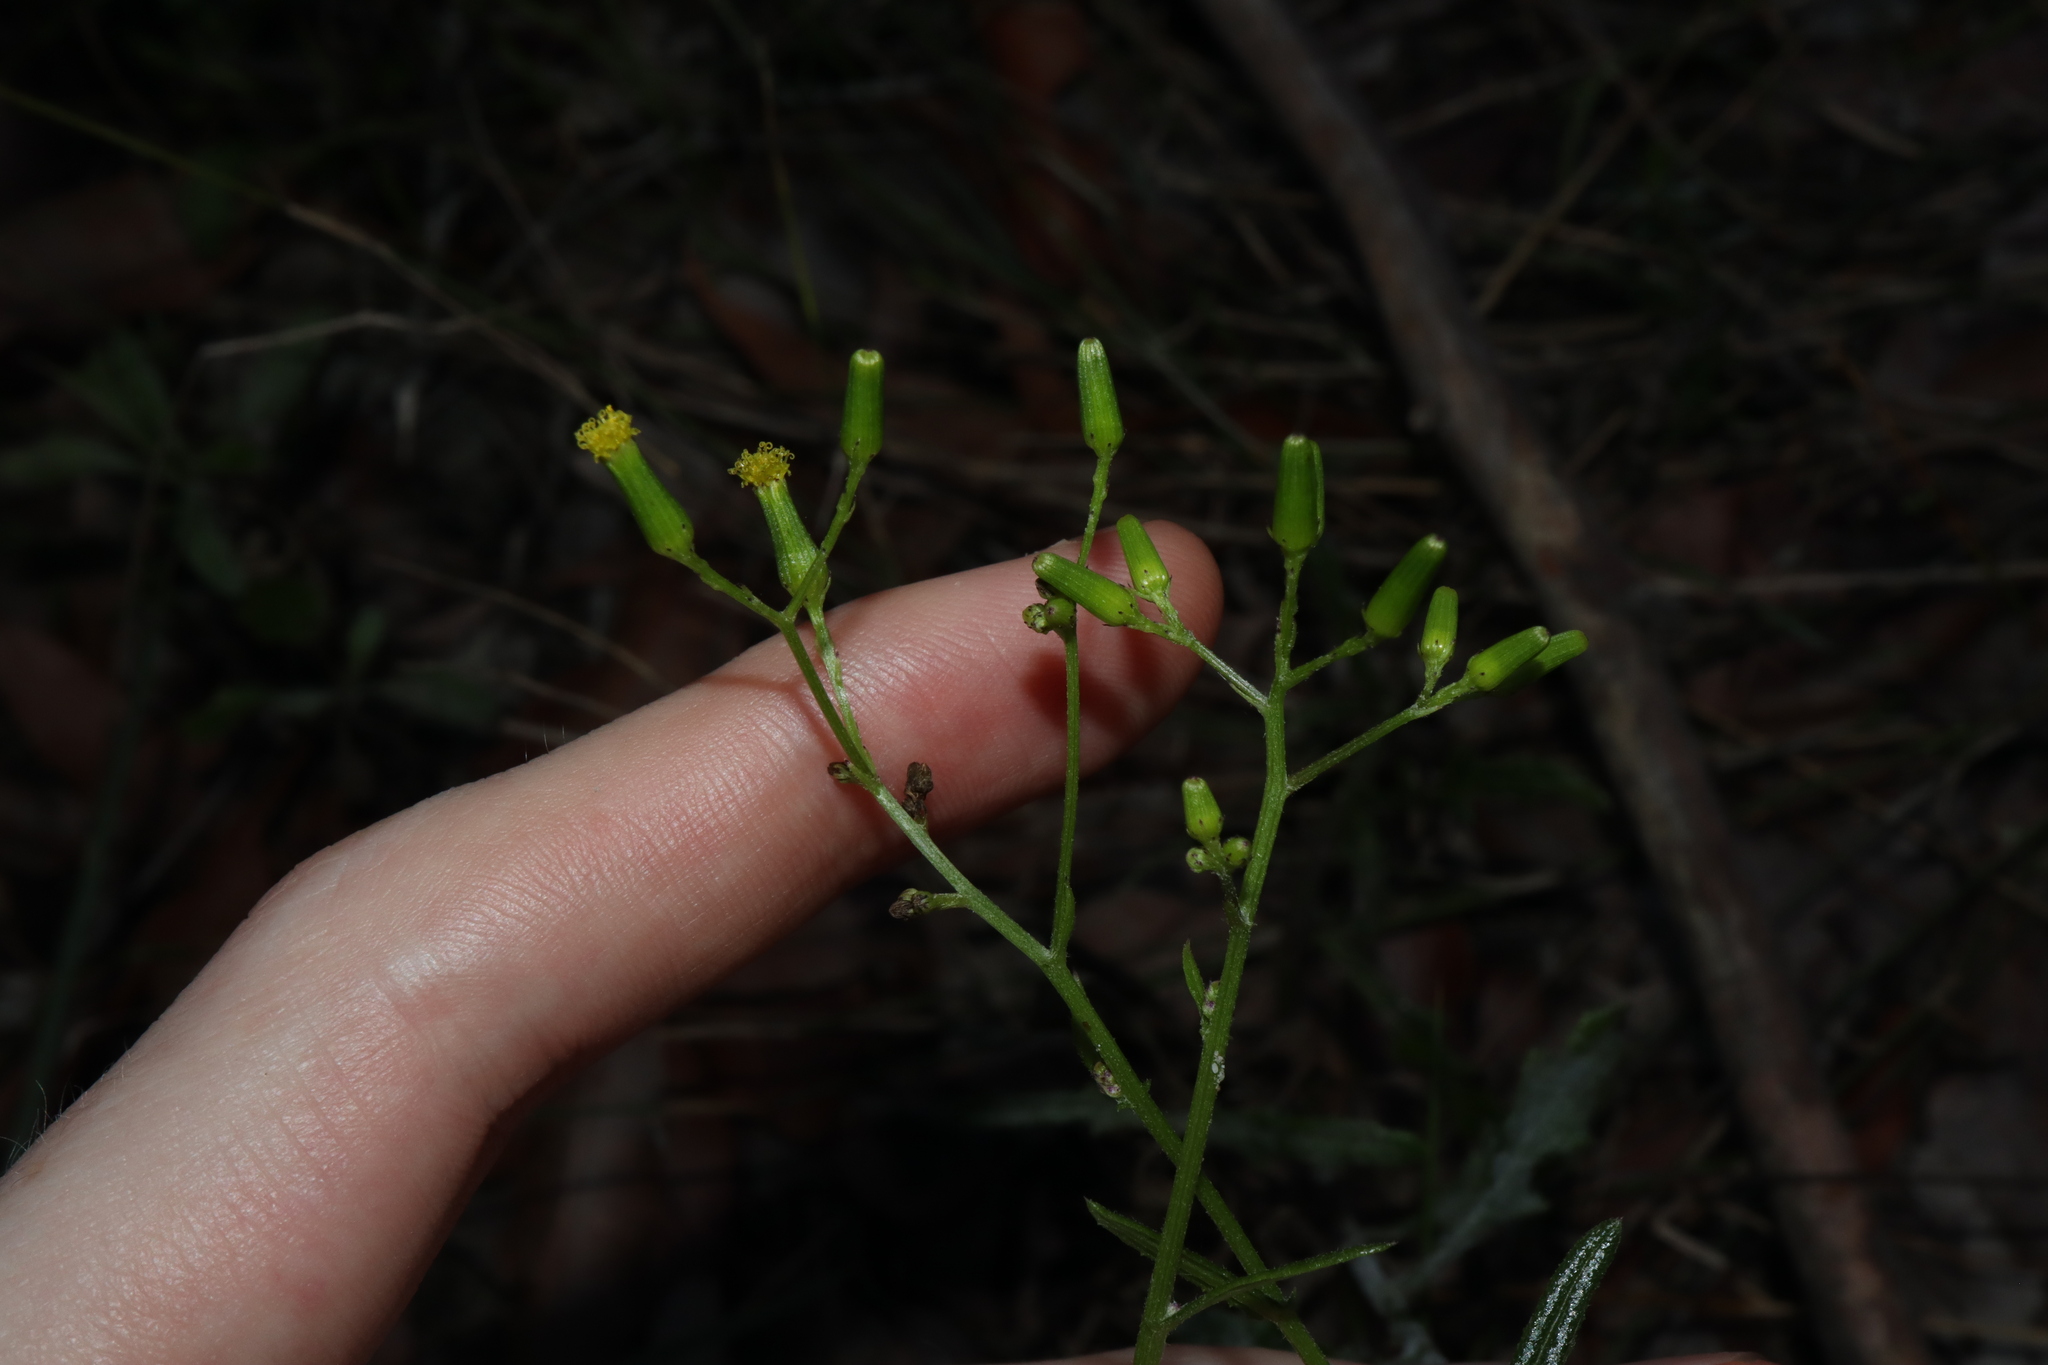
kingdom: Plantae
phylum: Tracheophyta
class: Magnoliopsida
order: Asterales
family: Asteraceae
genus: Senecio
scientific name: Senecio hispidulus
